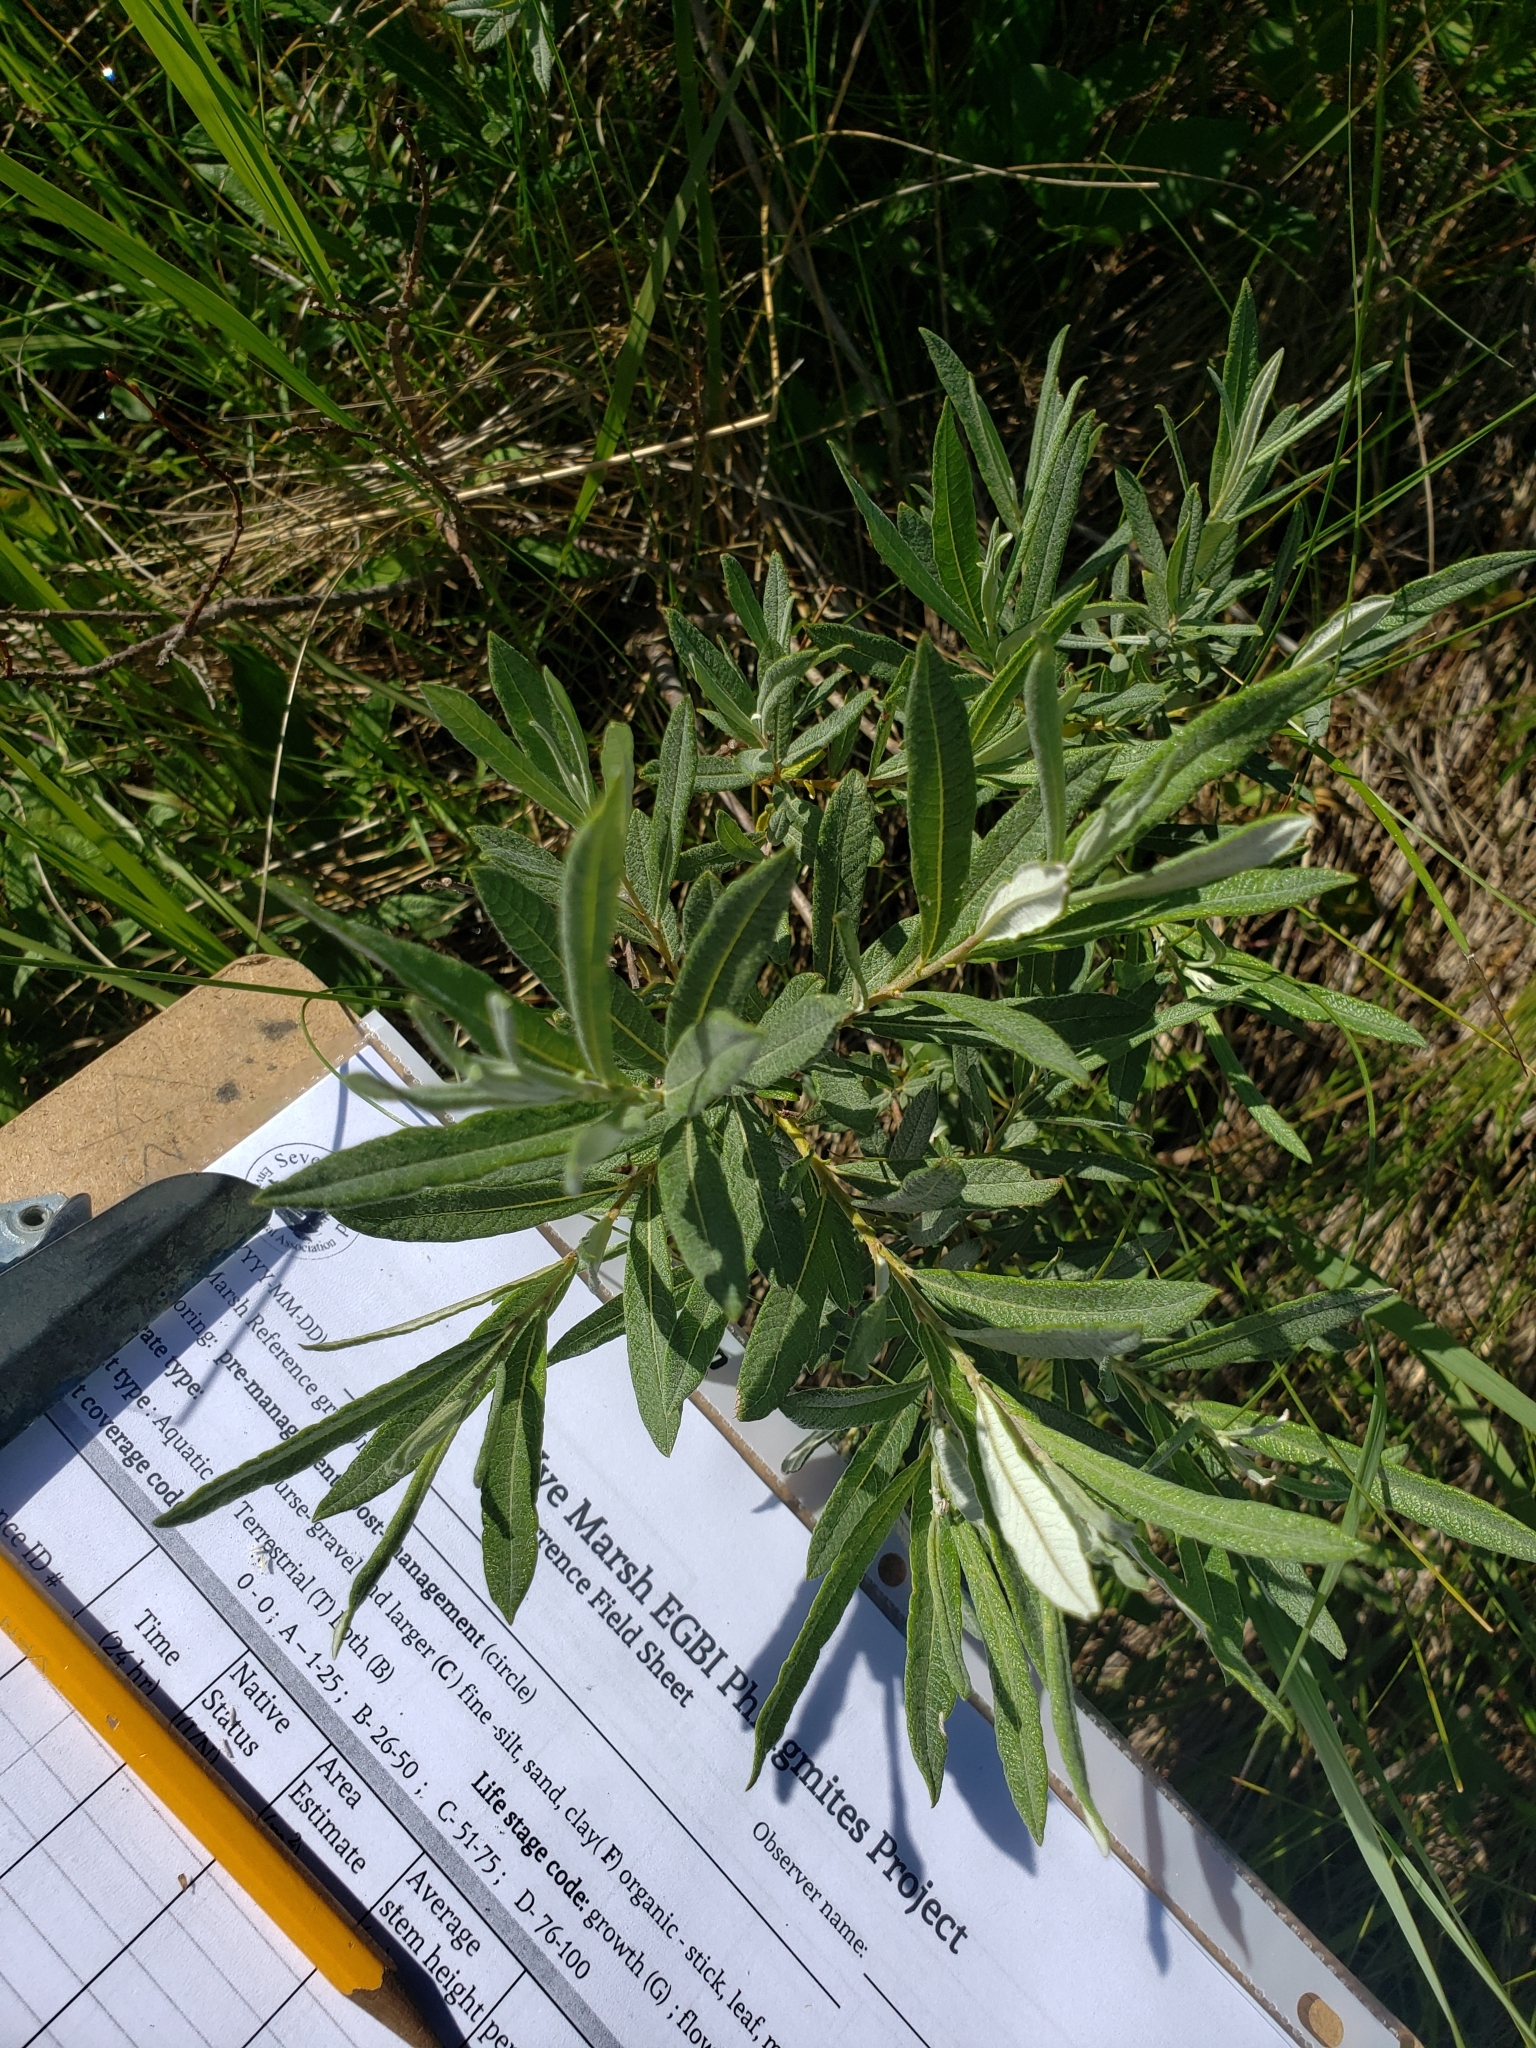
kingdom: Plantae
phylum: Tracheophyta
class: Magnoliopsida
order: Malpighiales
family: Salicaceae
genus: Salix
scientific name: Salix candida
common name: Hoary willow
